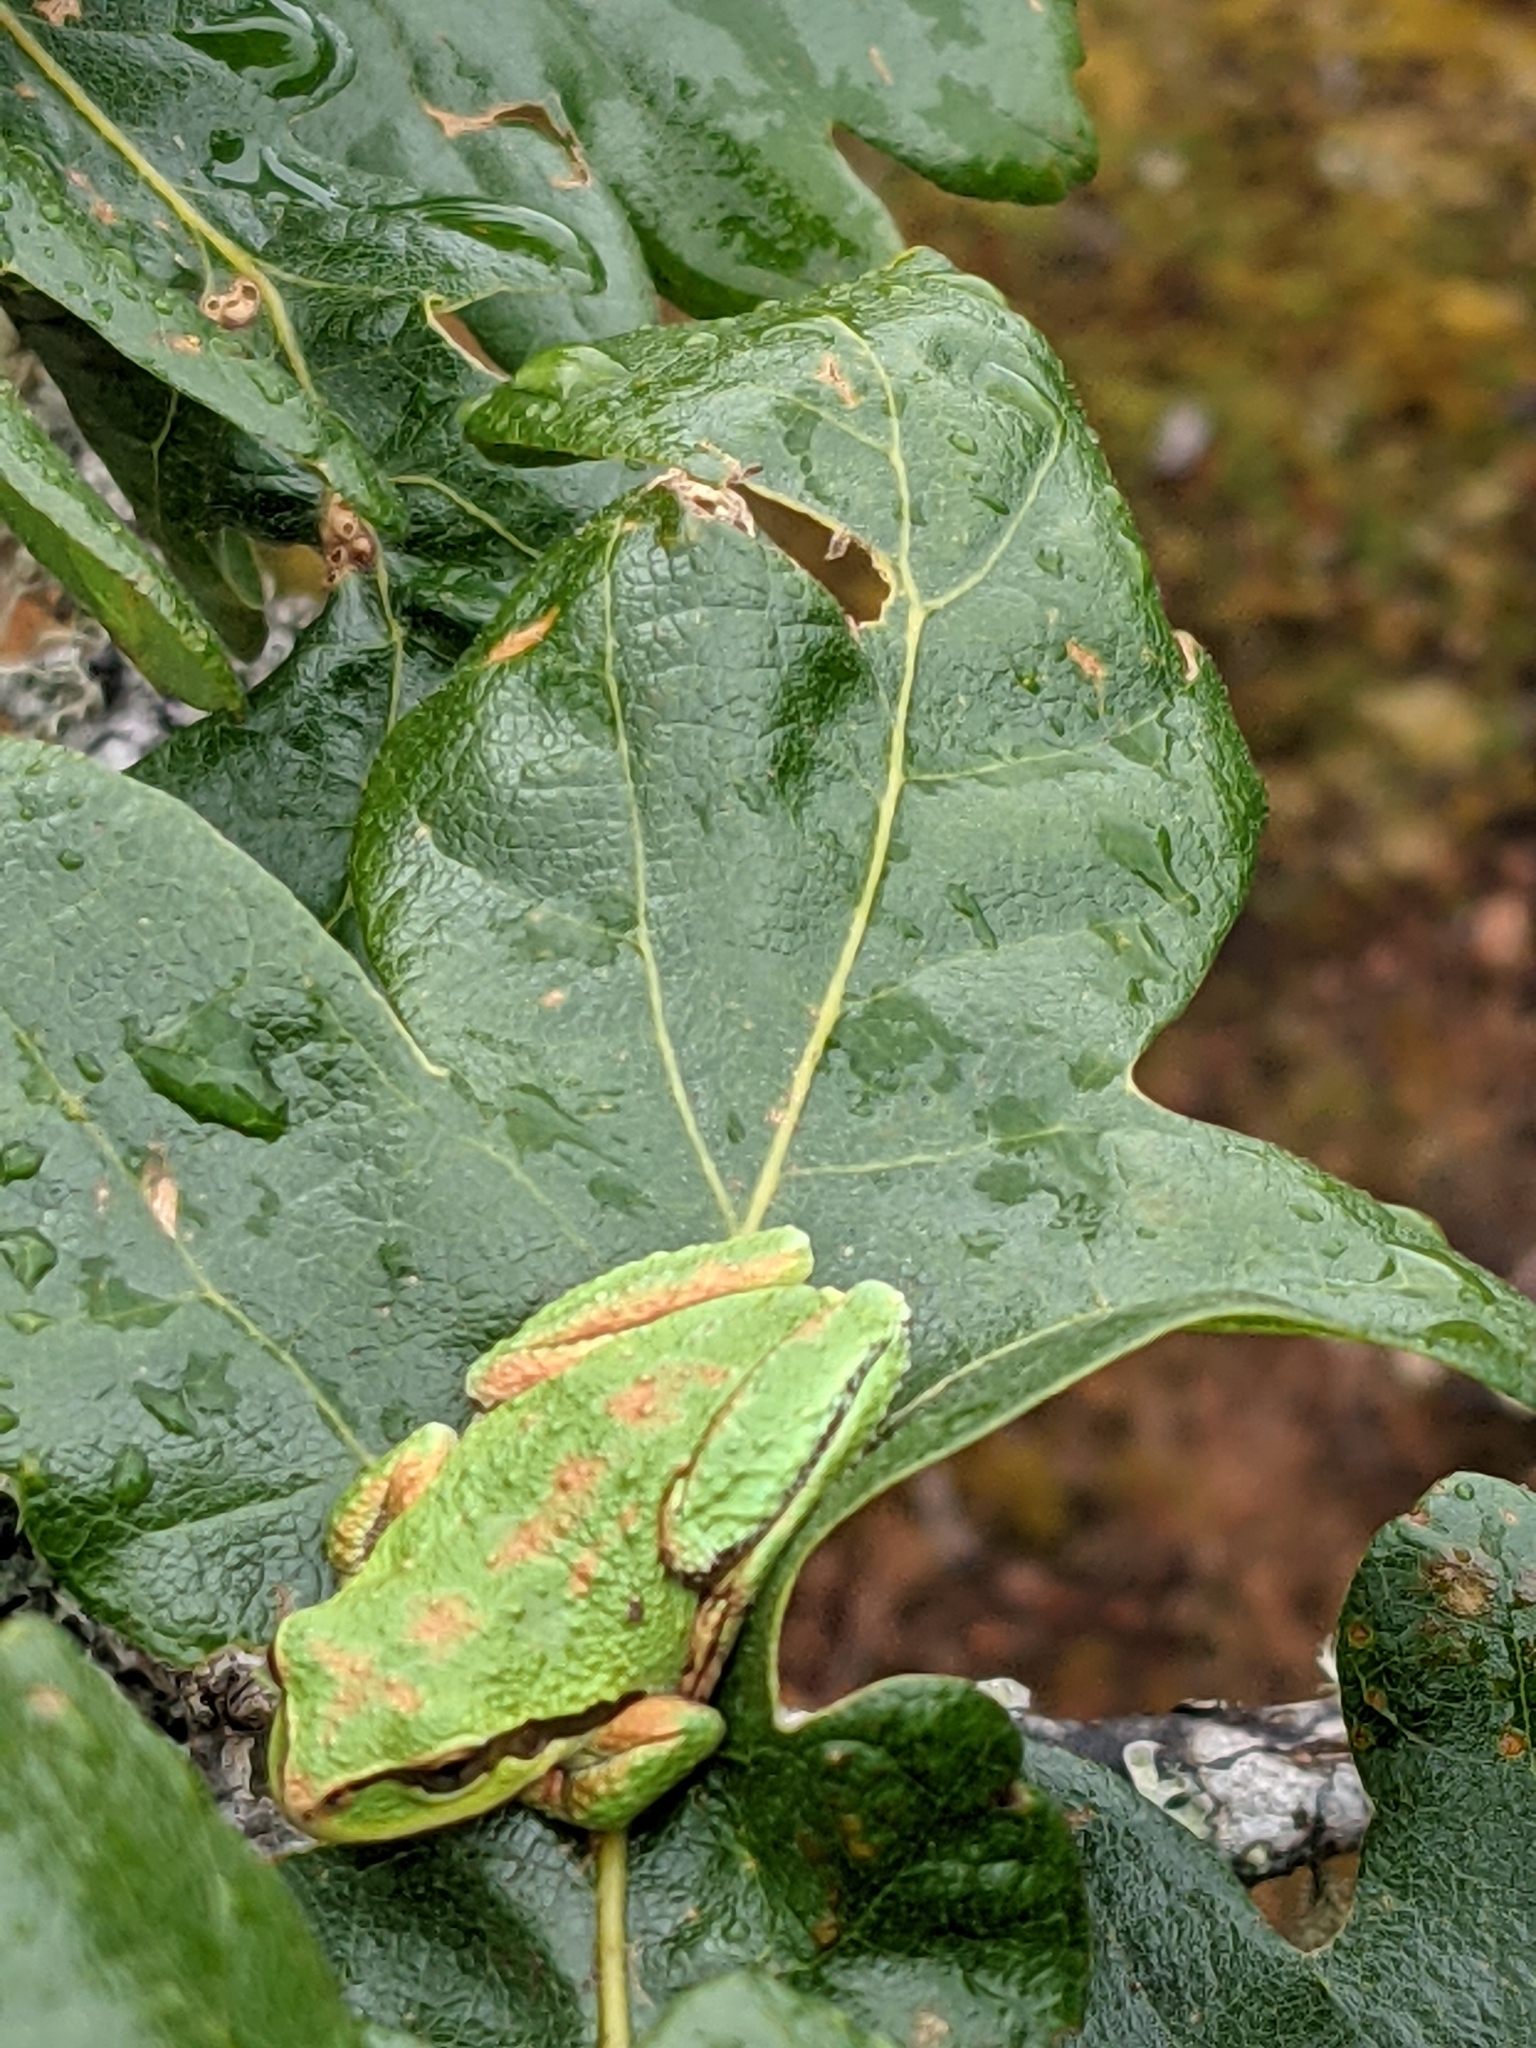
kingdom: Animalia
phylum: Chordata
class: Amphibia
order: Anura
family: Hylidae
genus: Pseudacris
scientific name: Pseudacris regilla
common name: Pacific chorus frog
